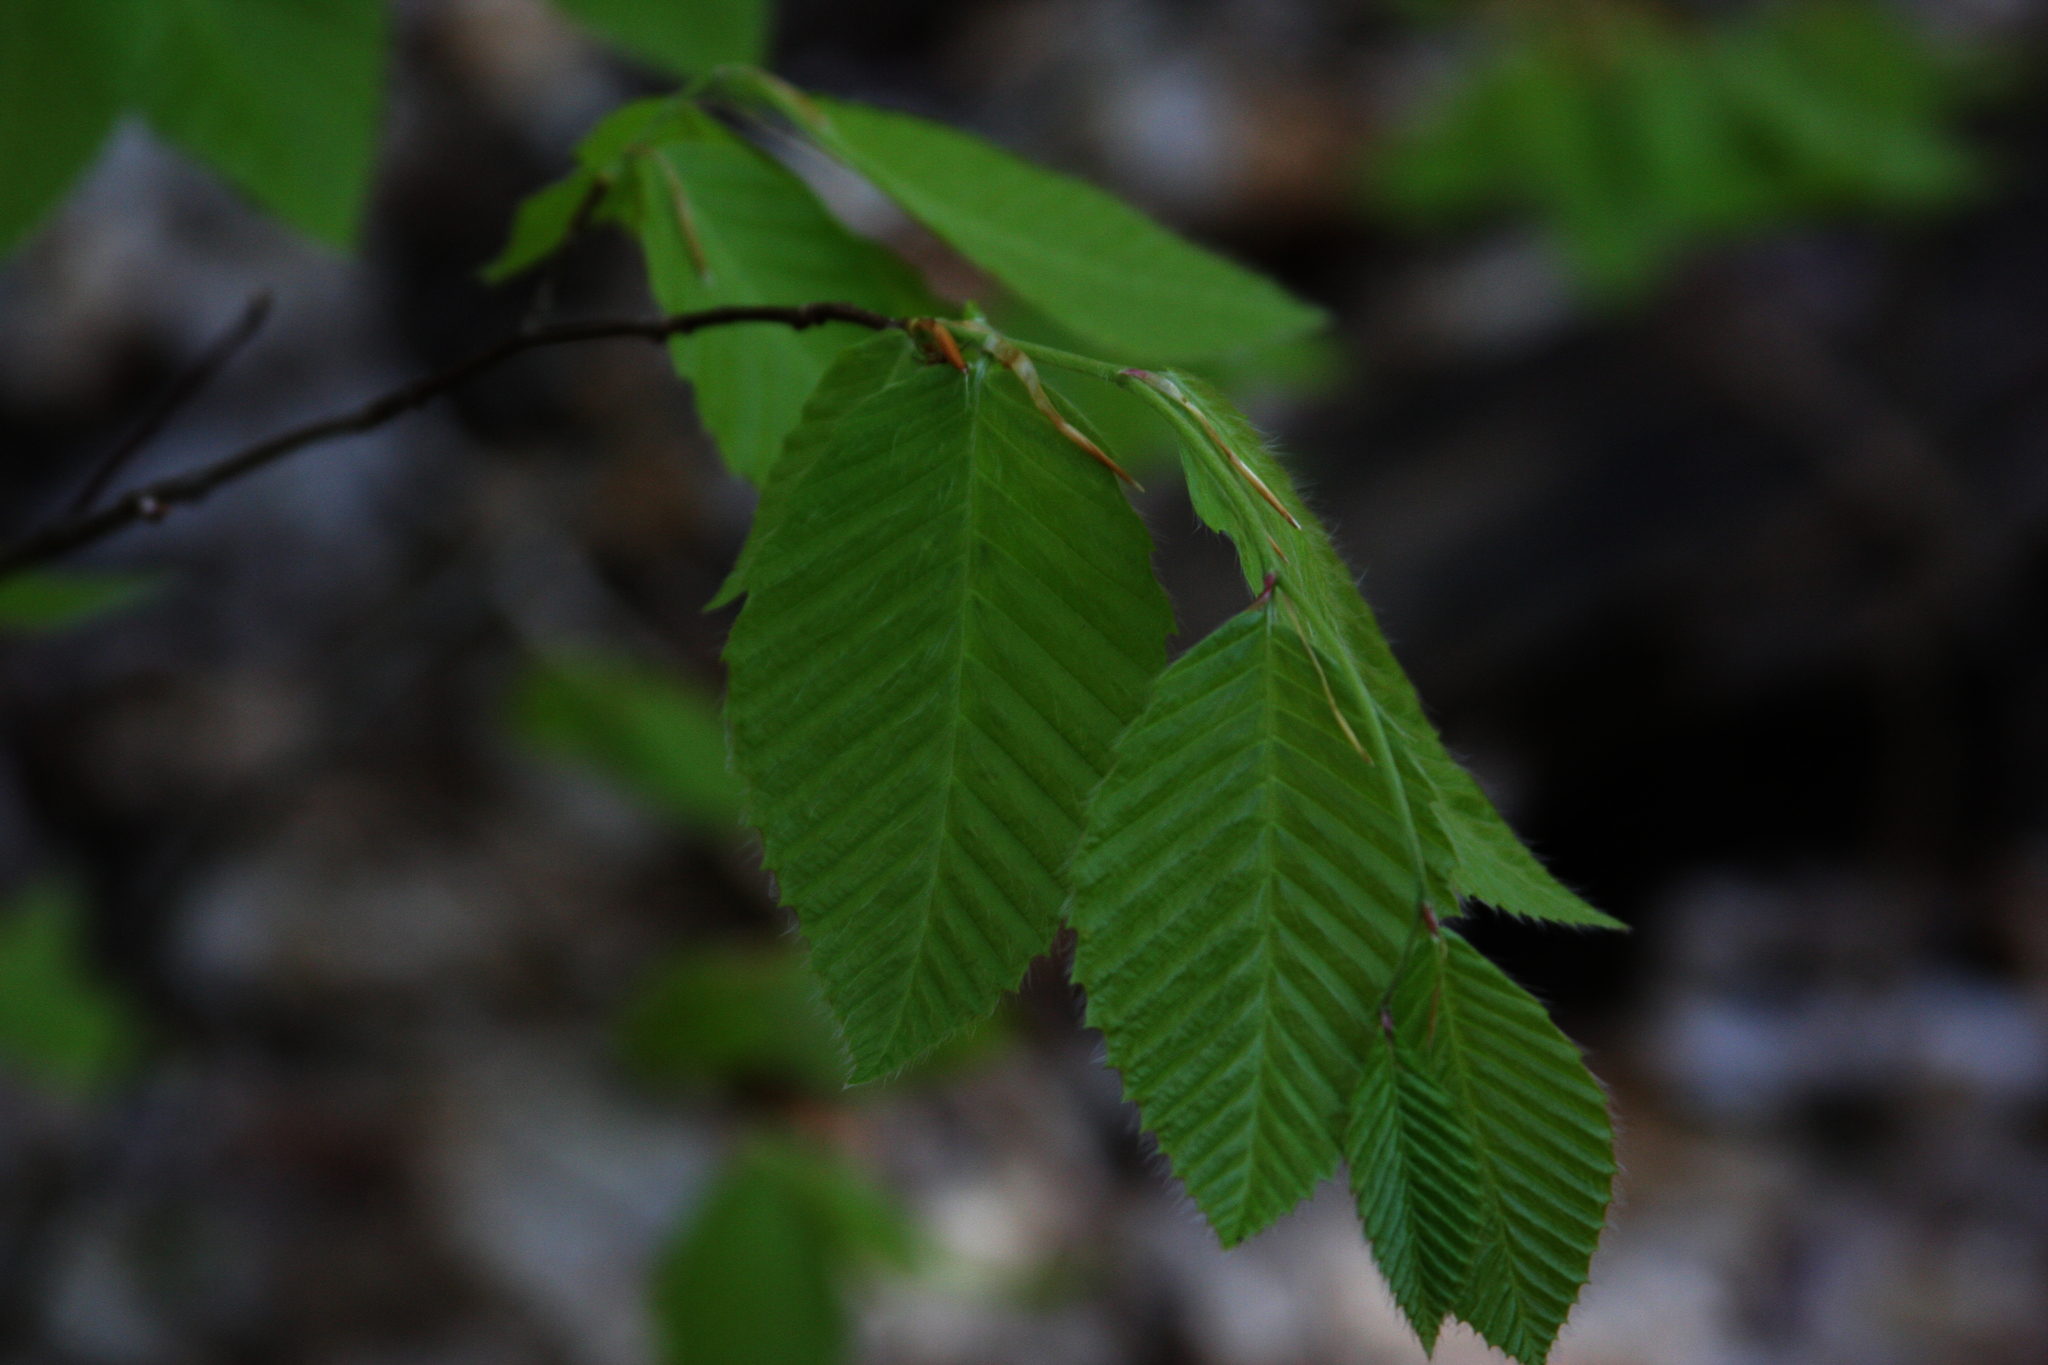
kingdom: Plantae
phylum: Tracheophyta
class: Magnoliopsida
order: Fagales
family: Fagaceae
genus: Fagus
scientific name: Fagus grandifolia
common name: American beech
